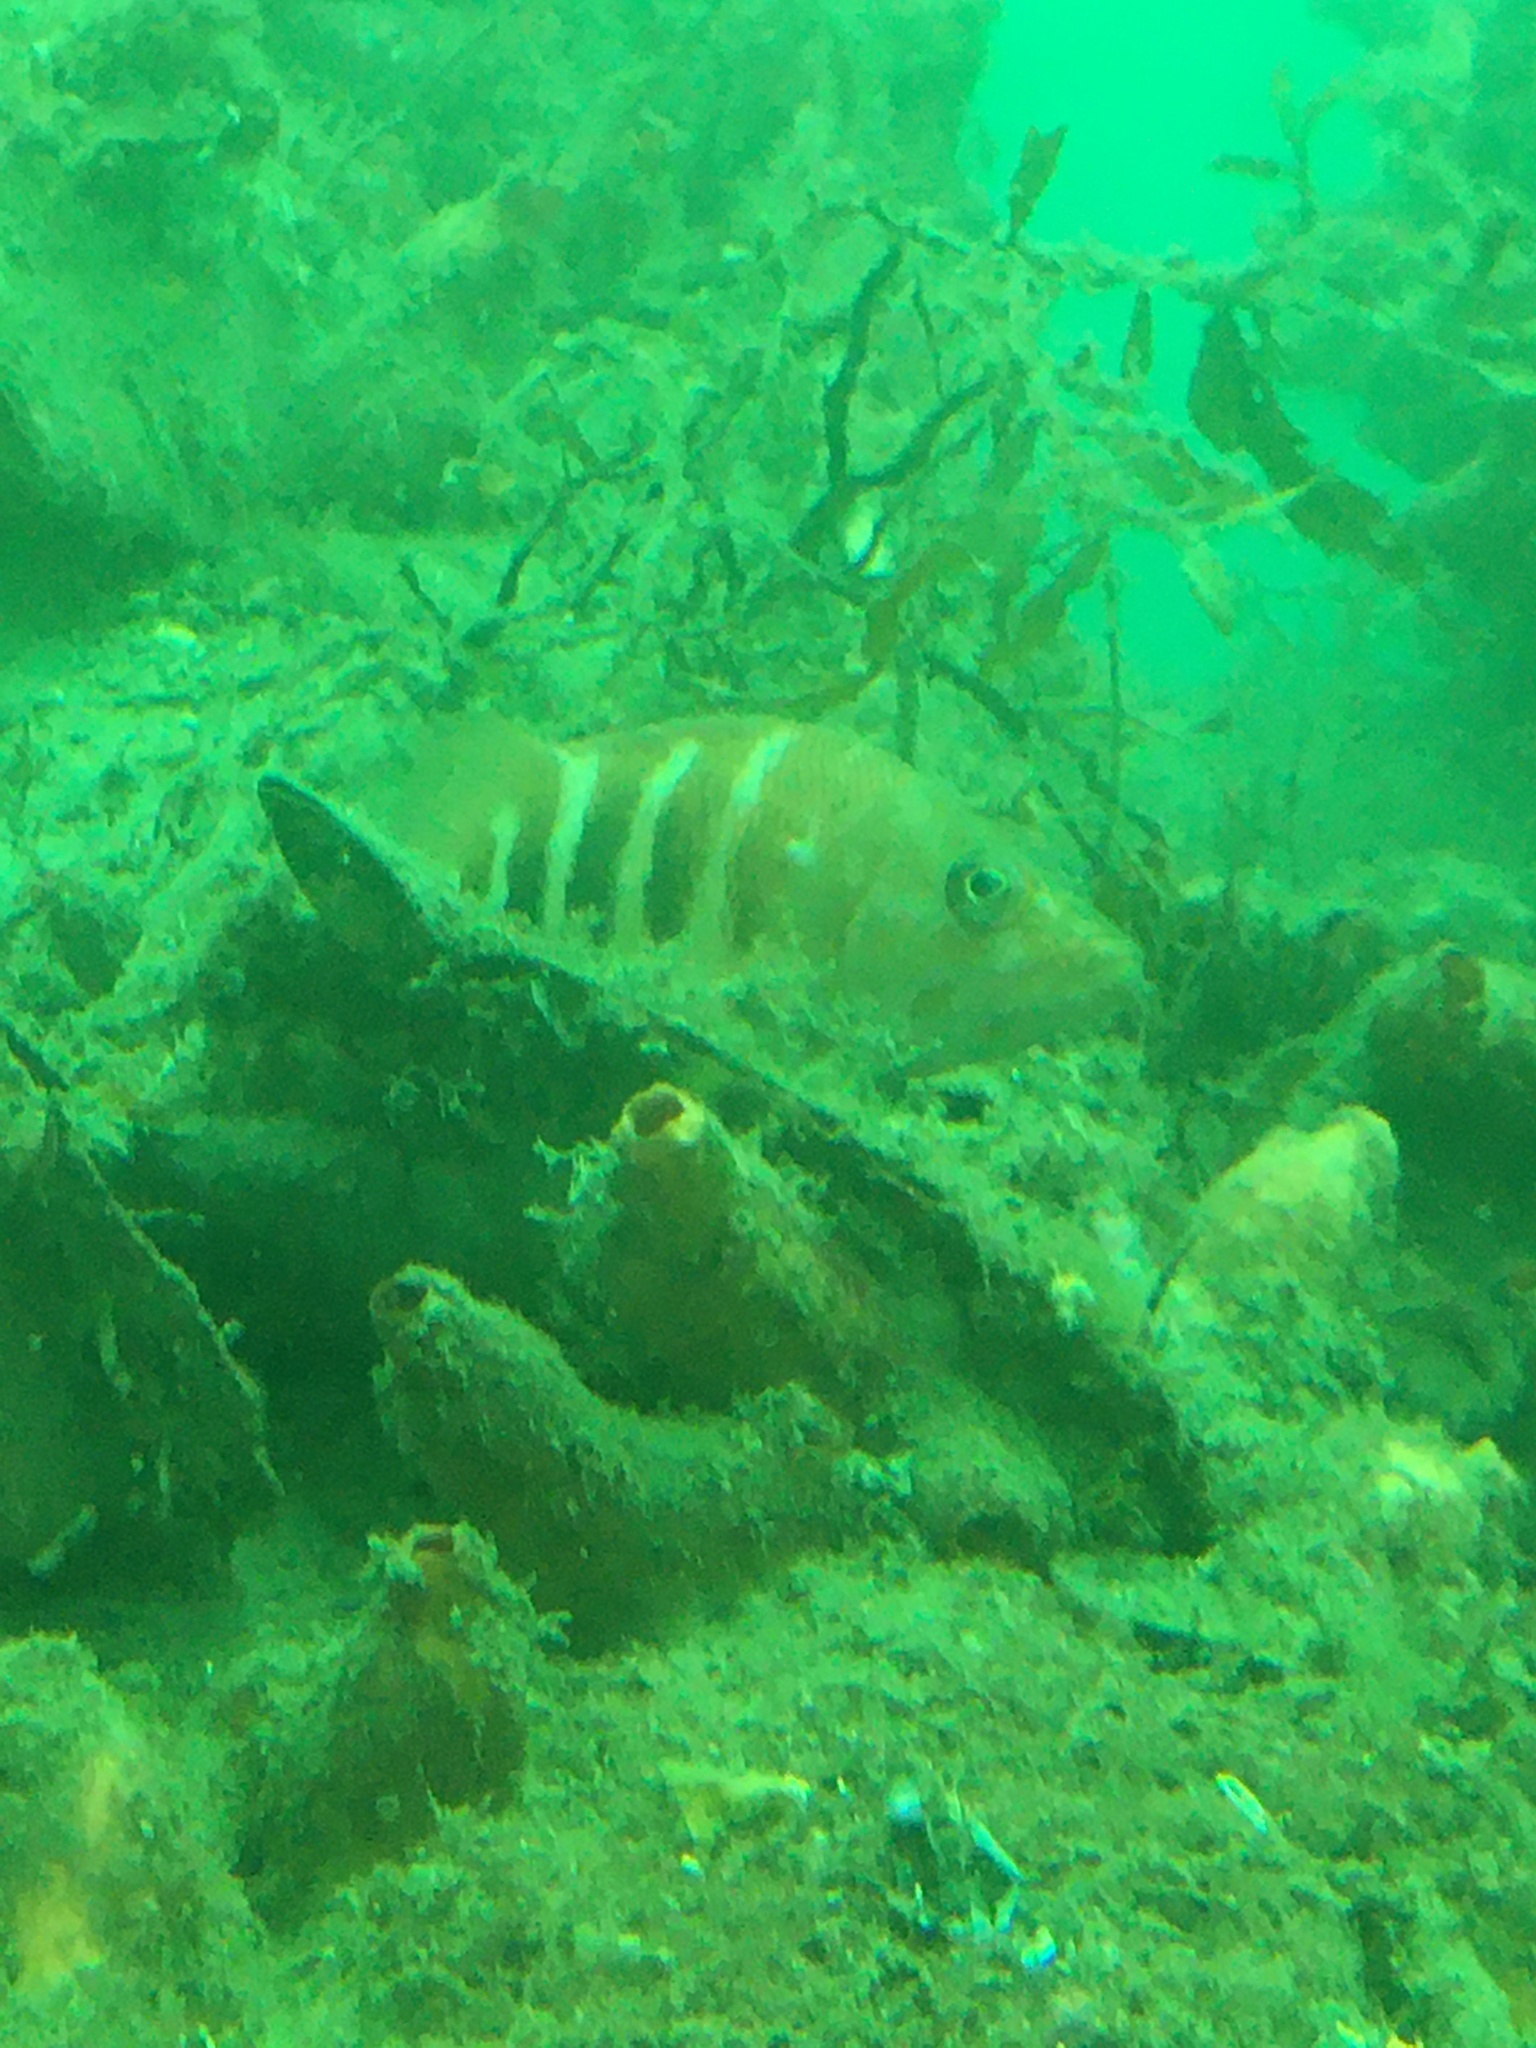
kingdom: Animalia
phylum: Chordata
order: Perciformes
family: Serranidae
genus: Hypoplectrodes
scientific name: Hypoplectrodes huntii
